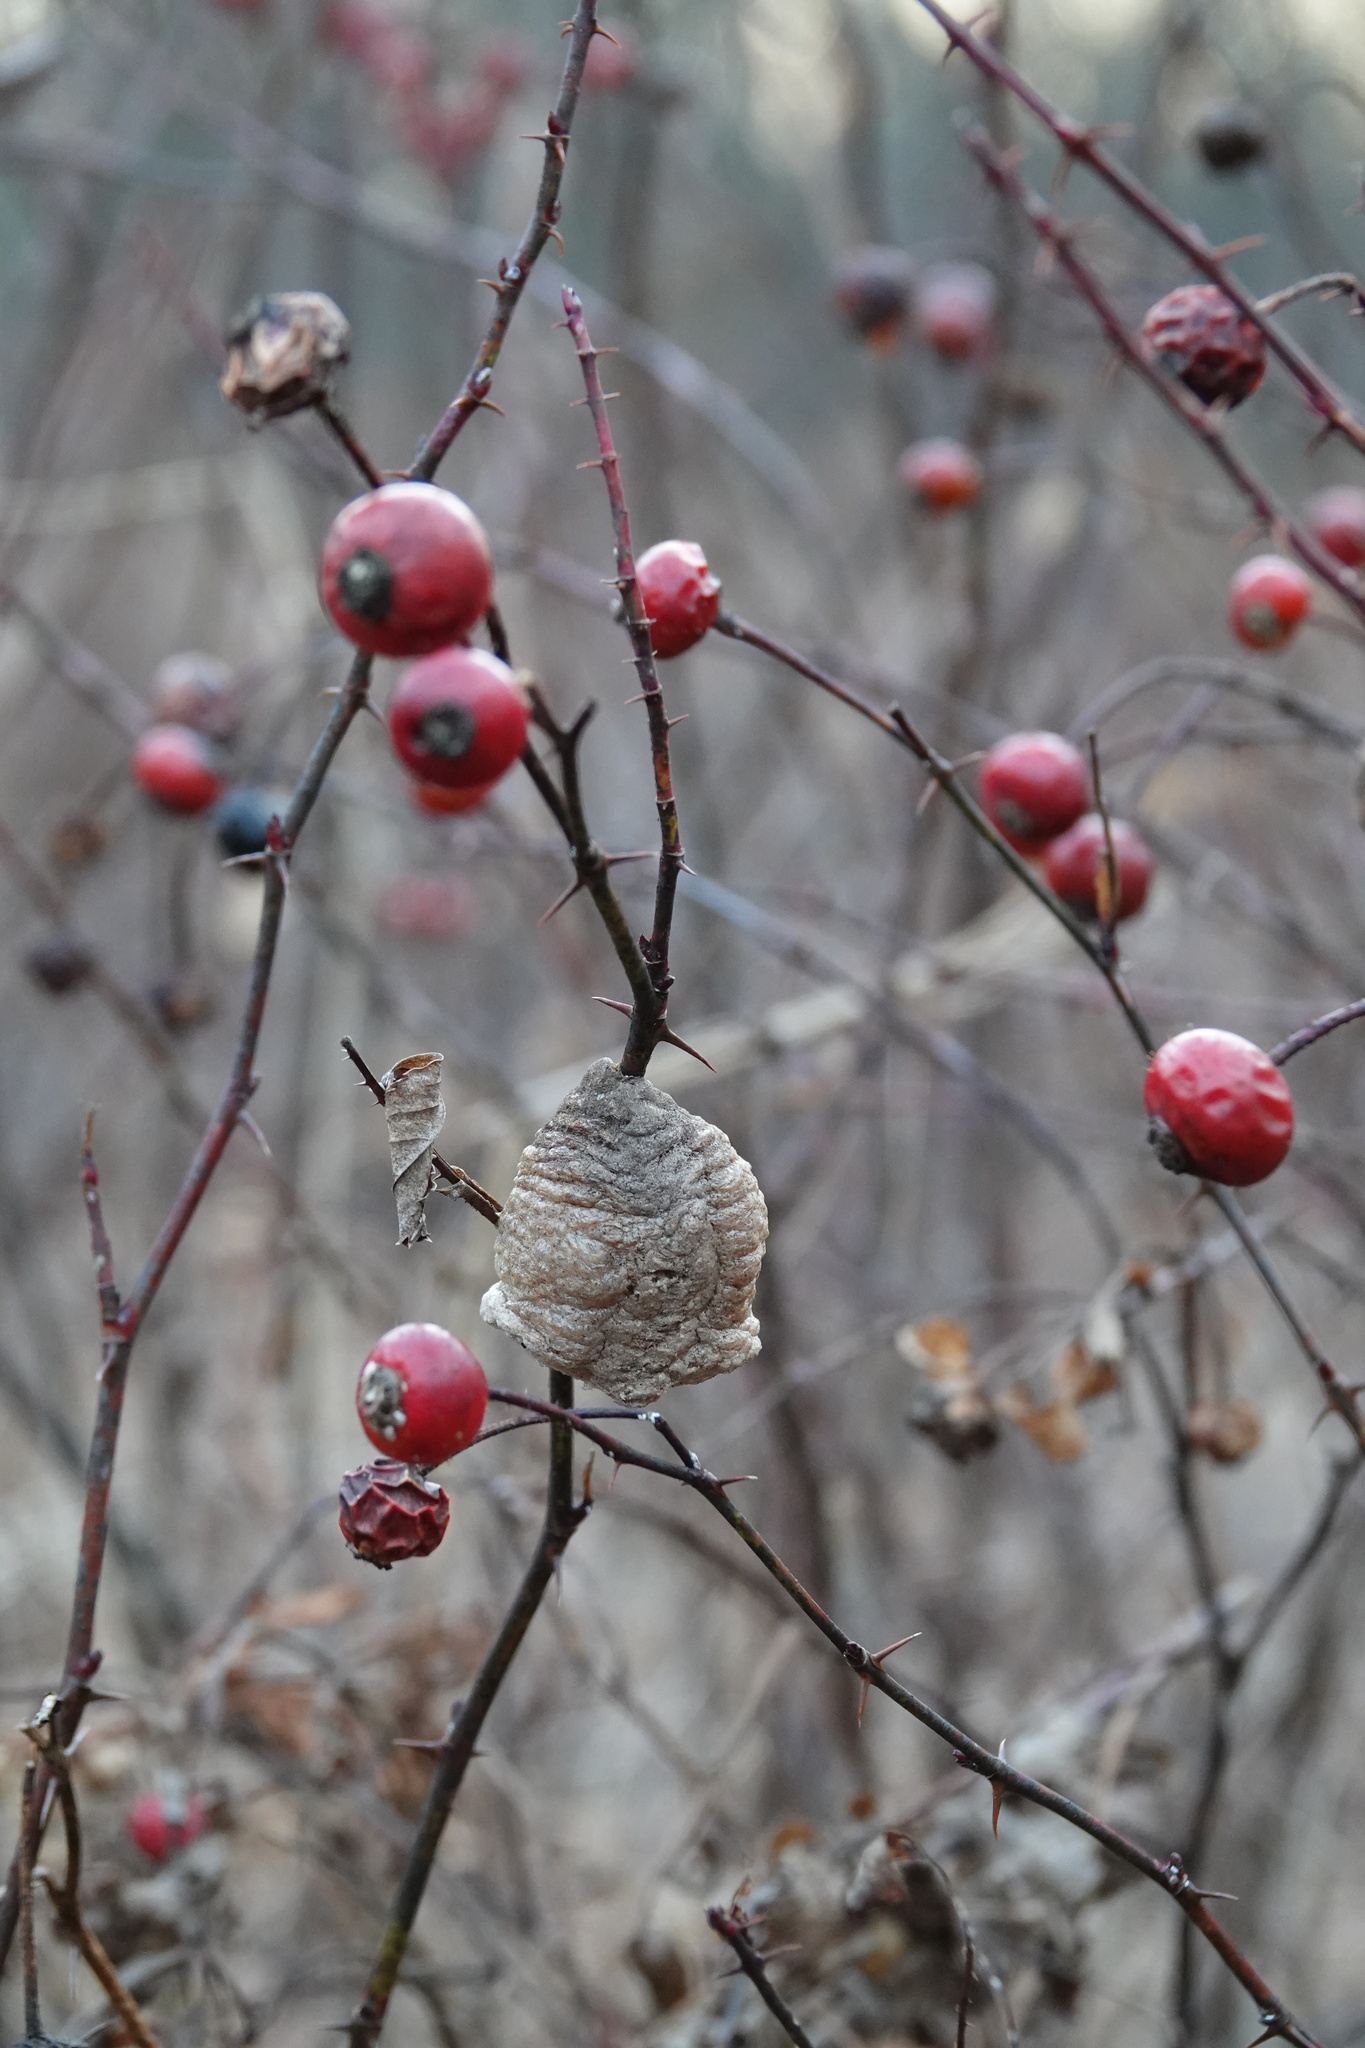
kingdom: Animalia
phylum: Arthropoda
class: Insecta
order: Mantodea
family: Mantidae
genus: Tenodera
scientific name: Tenodera sinensis
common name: Chinese mantis
